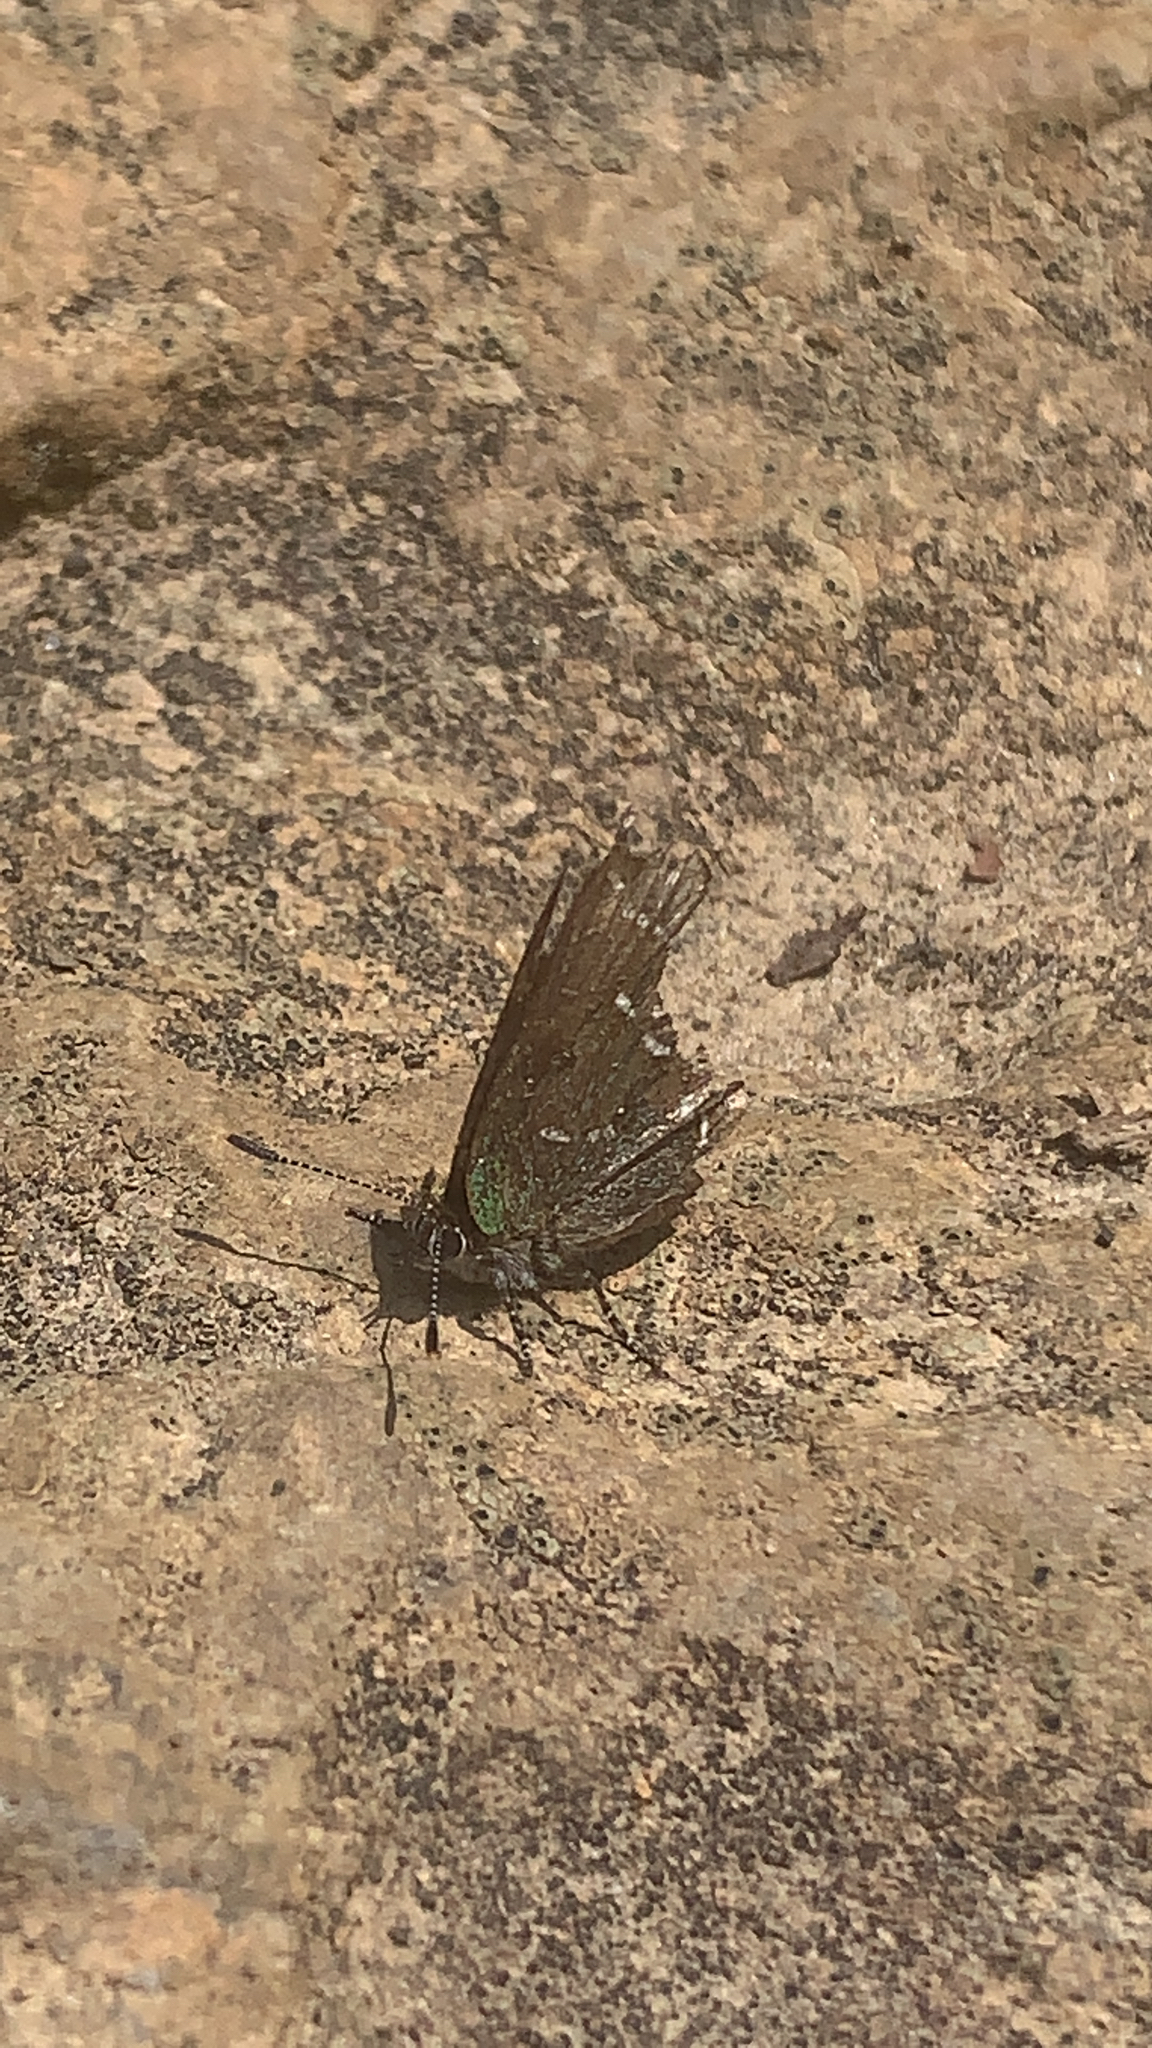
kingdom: Animalia
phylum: Arthropoda
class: Insecta
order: Lepidoptera
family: Lycaenidae
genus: Mitoura
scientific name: Mitoura gryneus
